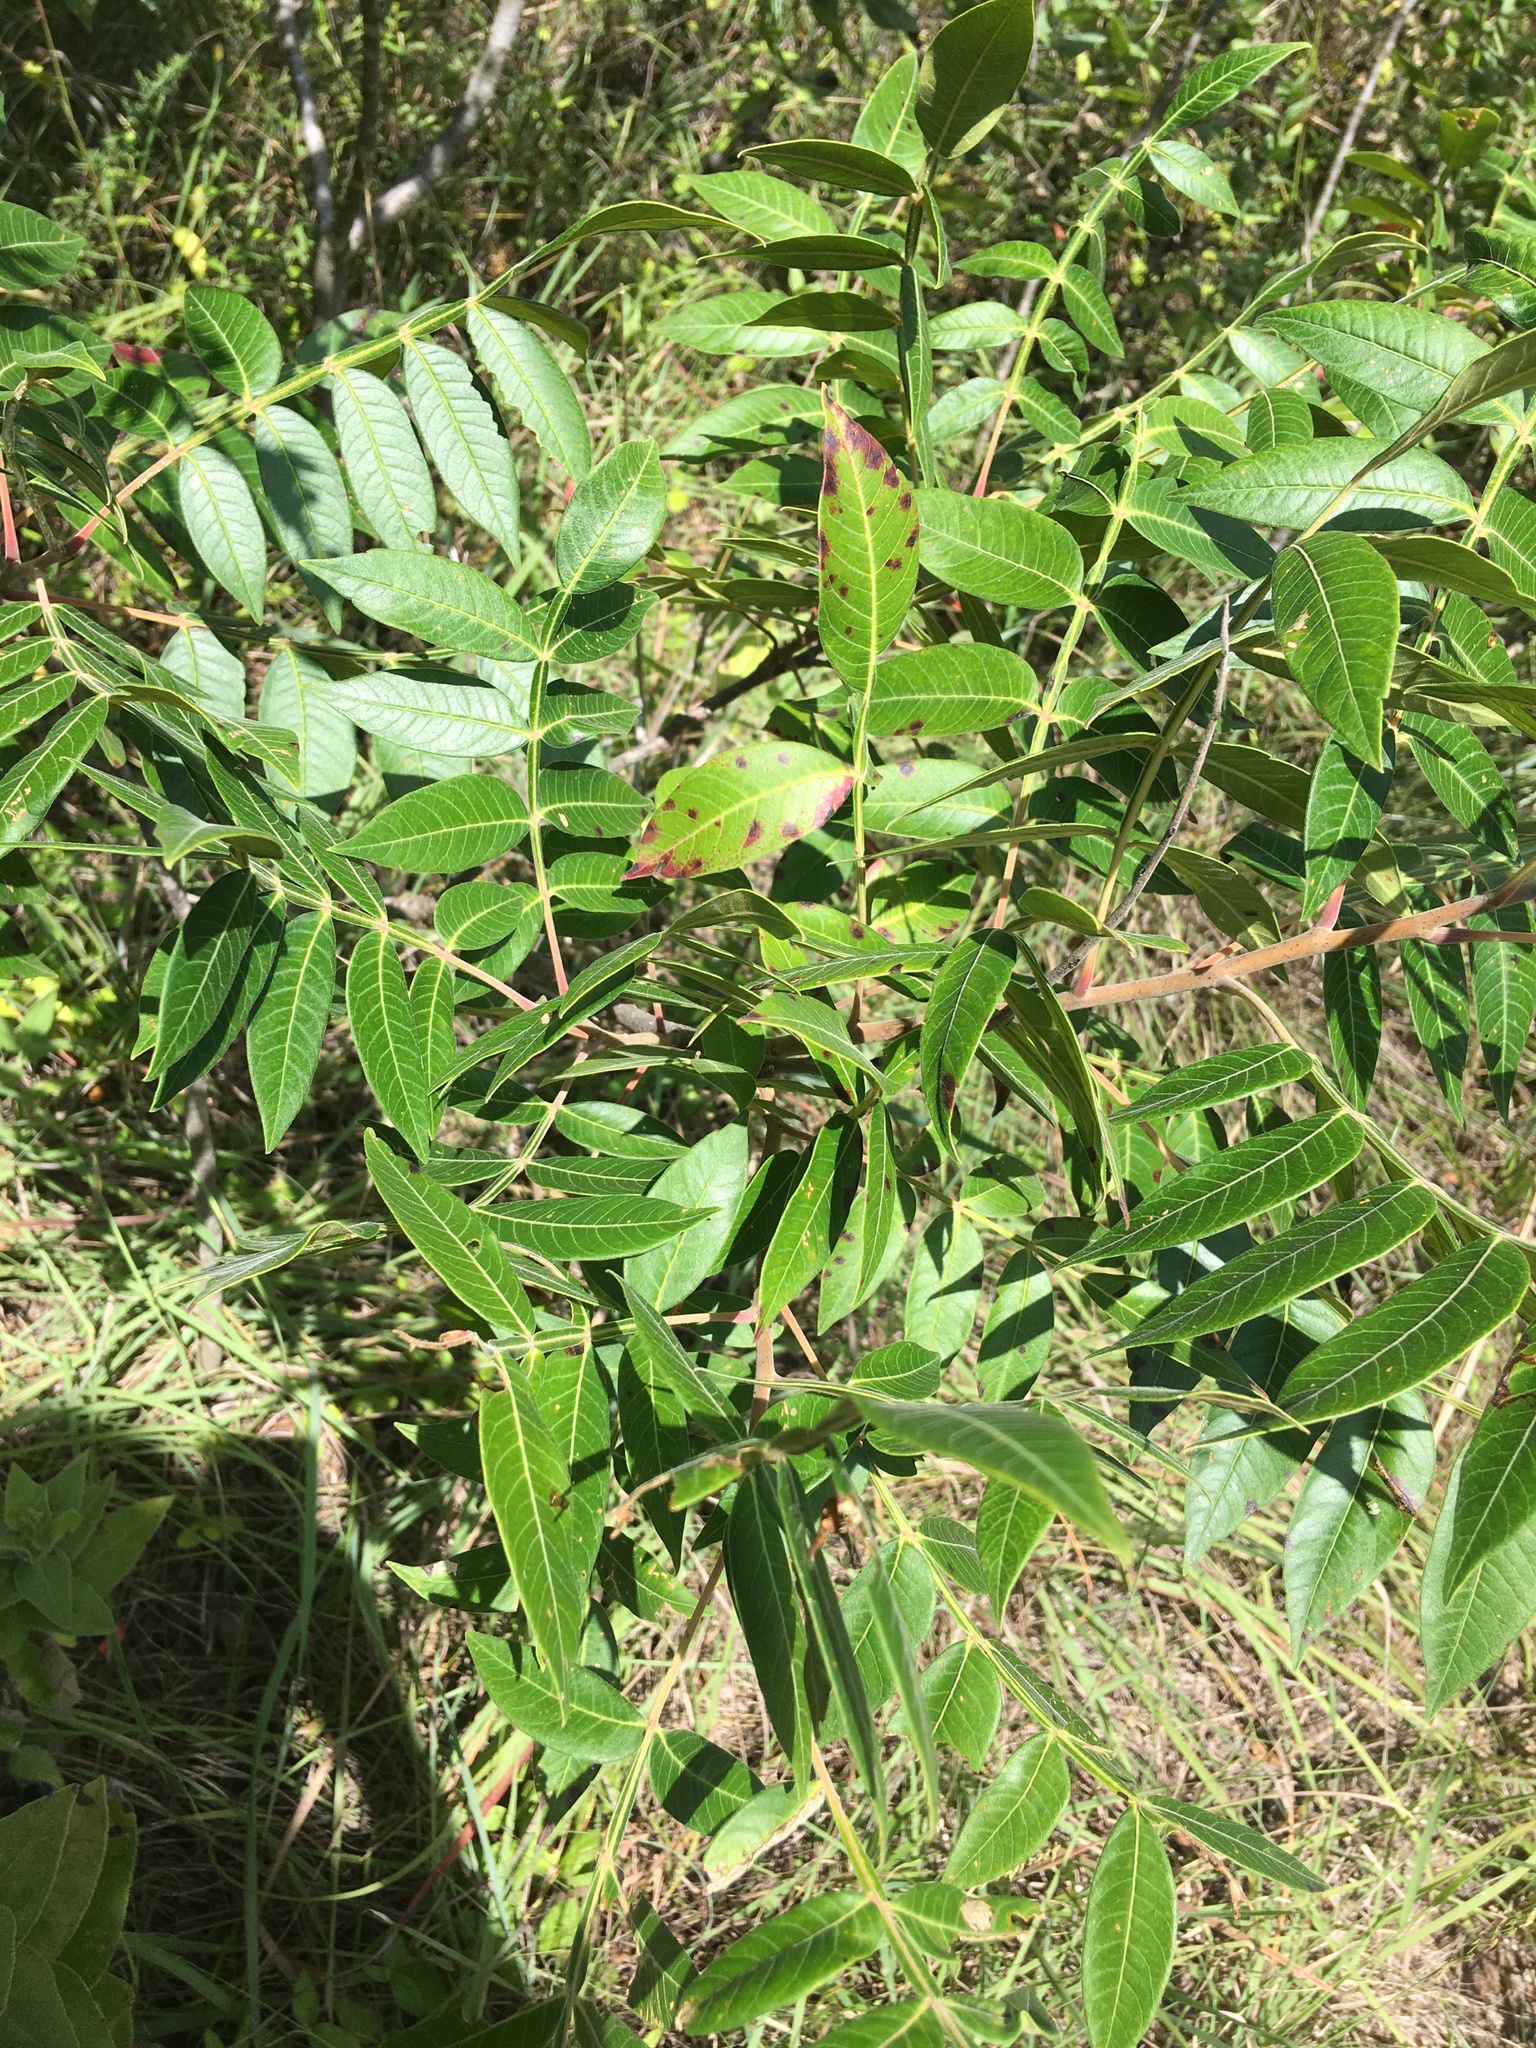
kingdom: Plantae
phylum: Tracheophyta
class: Magnoliopsida
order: Sapindales
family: Anacardiaceae
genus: Rhus
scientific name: Rhus copallina
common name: Shining sumac
